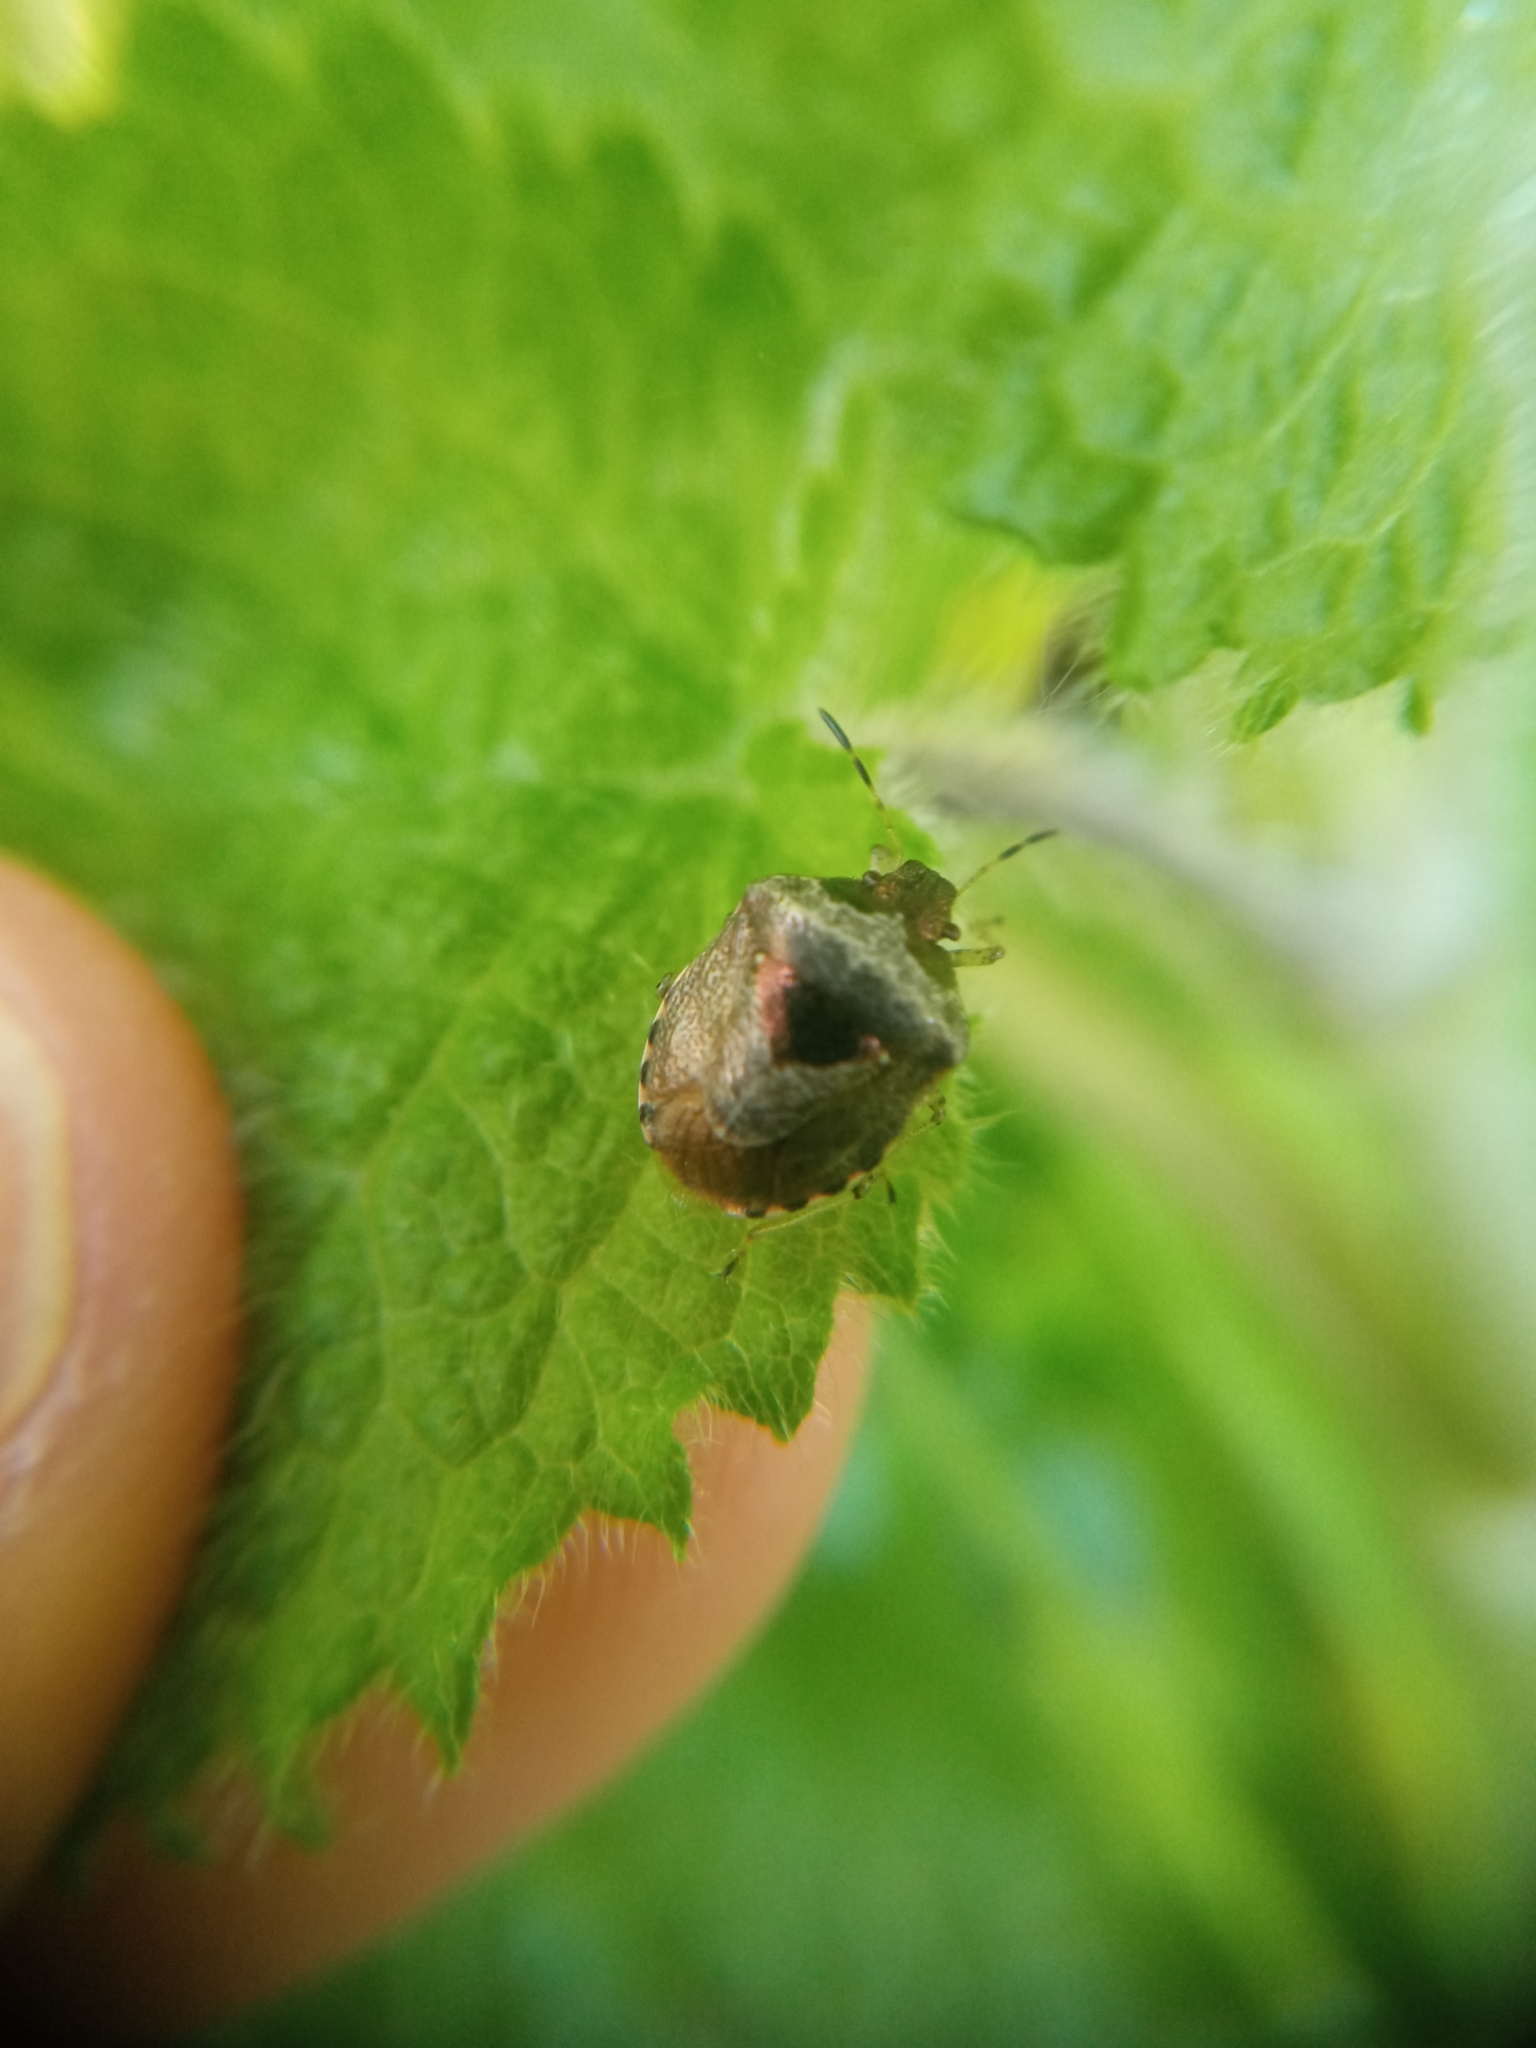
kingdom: Animalia
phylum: Arthropoda
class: Insecta
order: Hemiptera
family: Pentatomidae
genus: Eysarcoris
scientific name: Eysarcoris venustissimus
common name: Woundwort shieldbug
